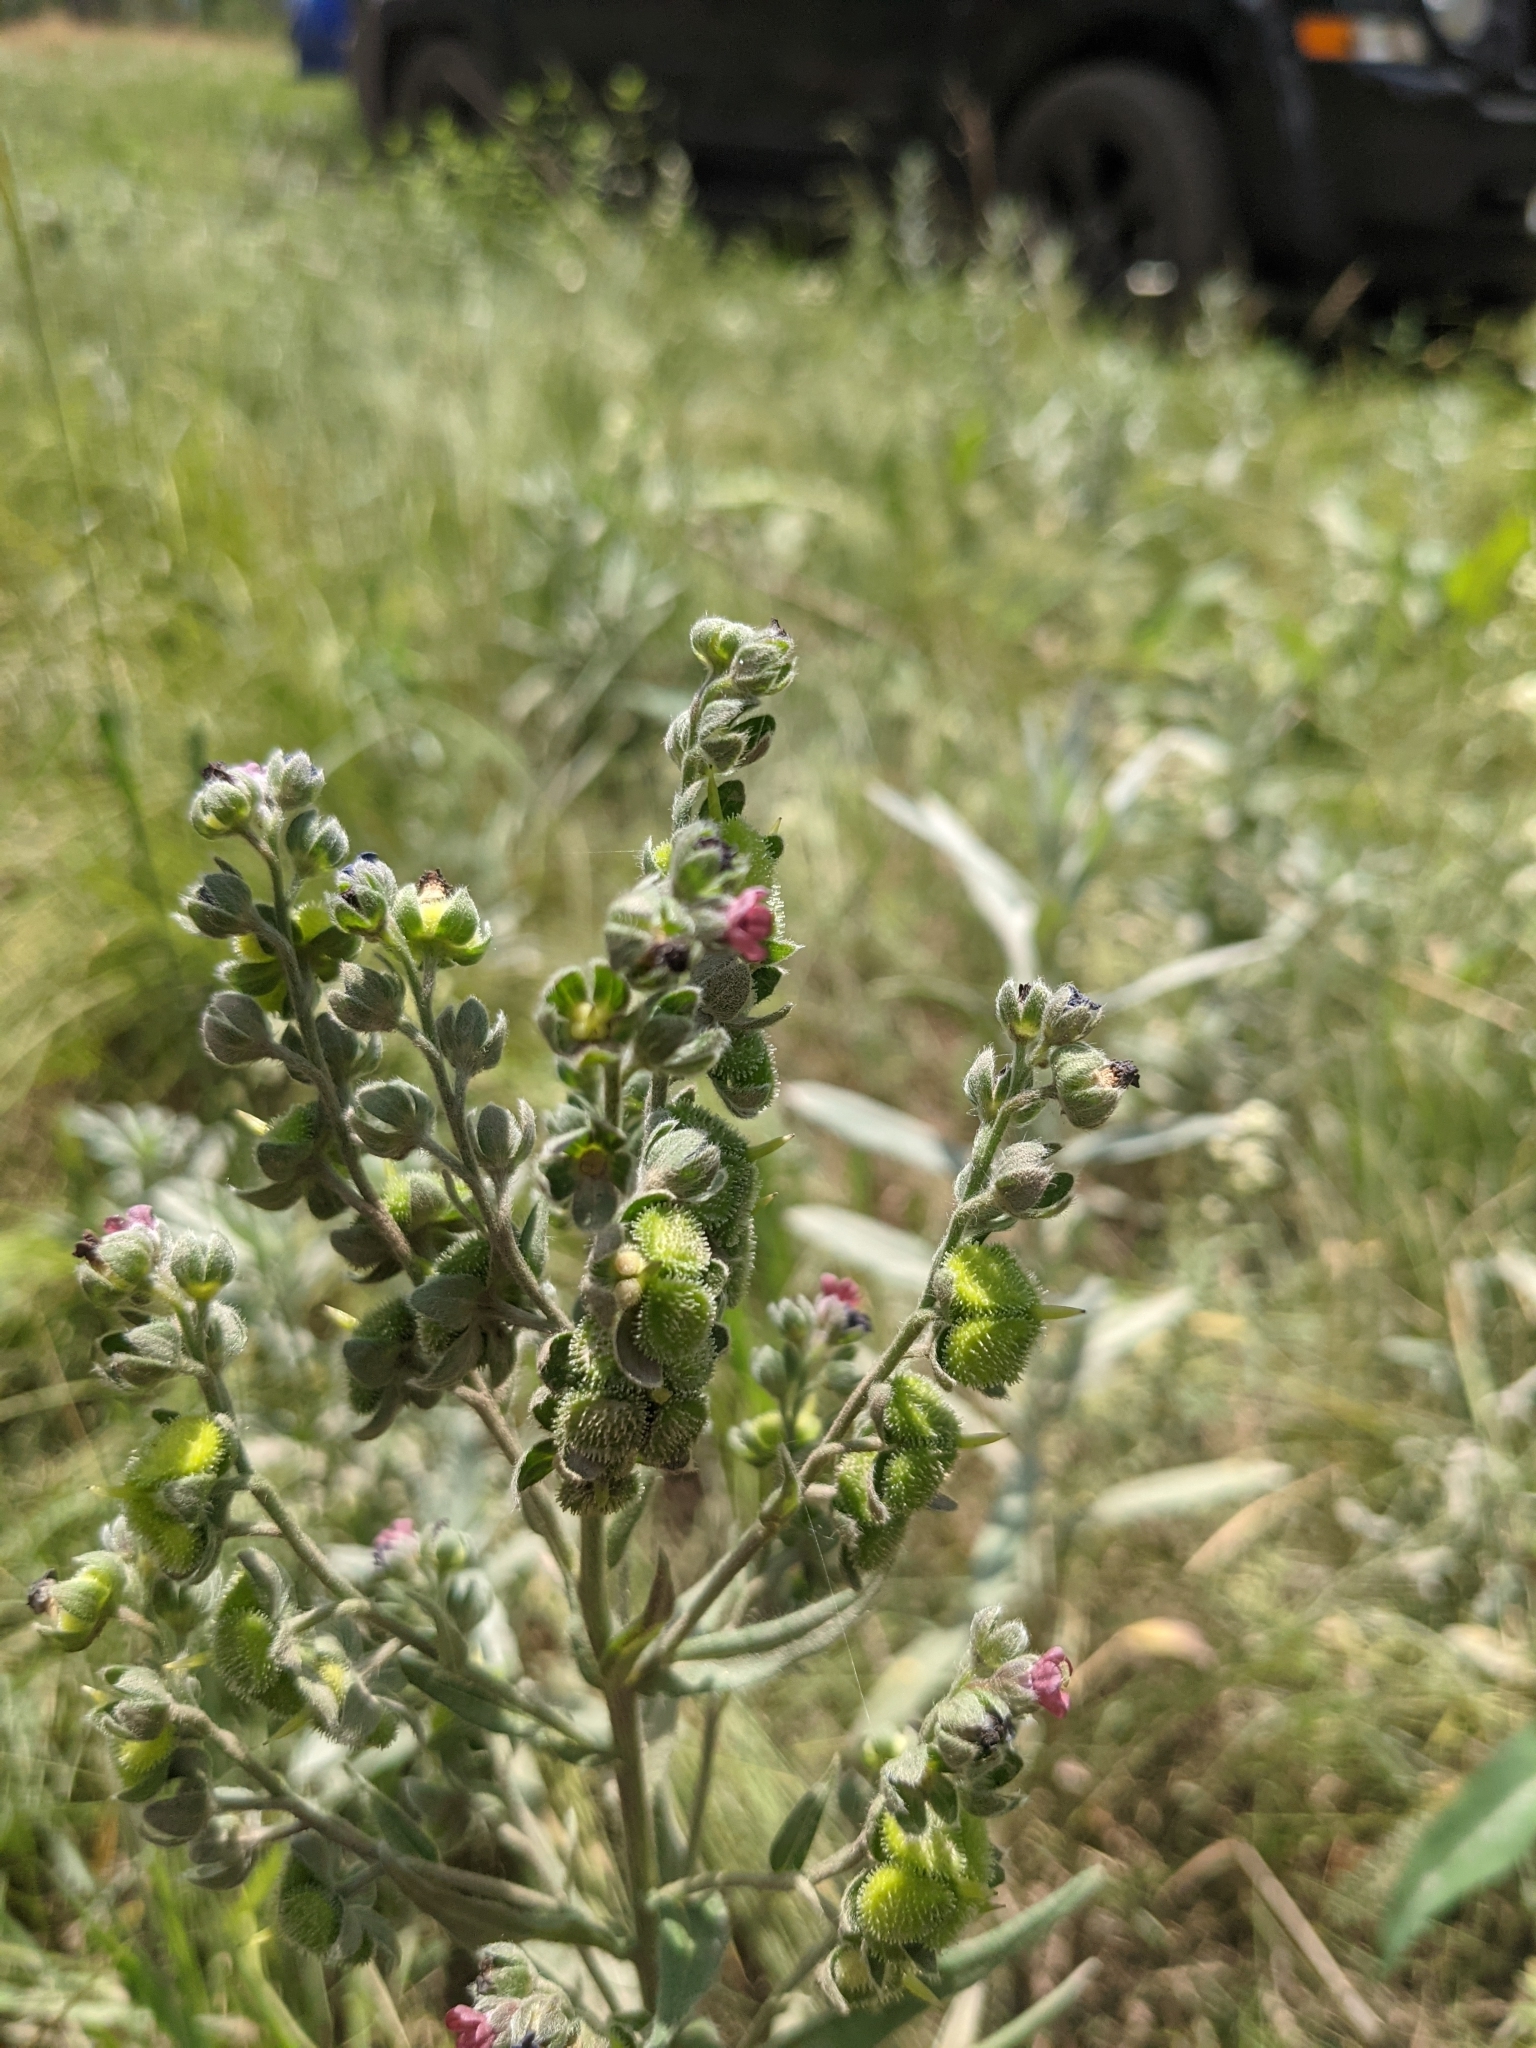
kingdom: Plantae
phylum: Tracheophyta
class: Magnoliopsida
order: Boraginales
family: Boraginaceae
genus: Cynoglossum
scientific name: Cynoglossum officinale
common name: Hound's-tongue
